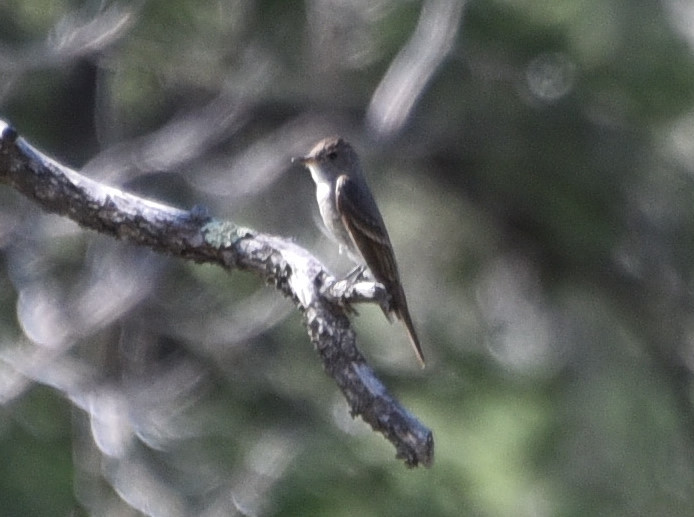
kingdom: Animalia
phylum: Chordata
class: Aves
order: Passeriformes
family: Tyrannidae
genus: Contopus
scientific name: Contopus sordidulus
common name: Western wood-pewee
